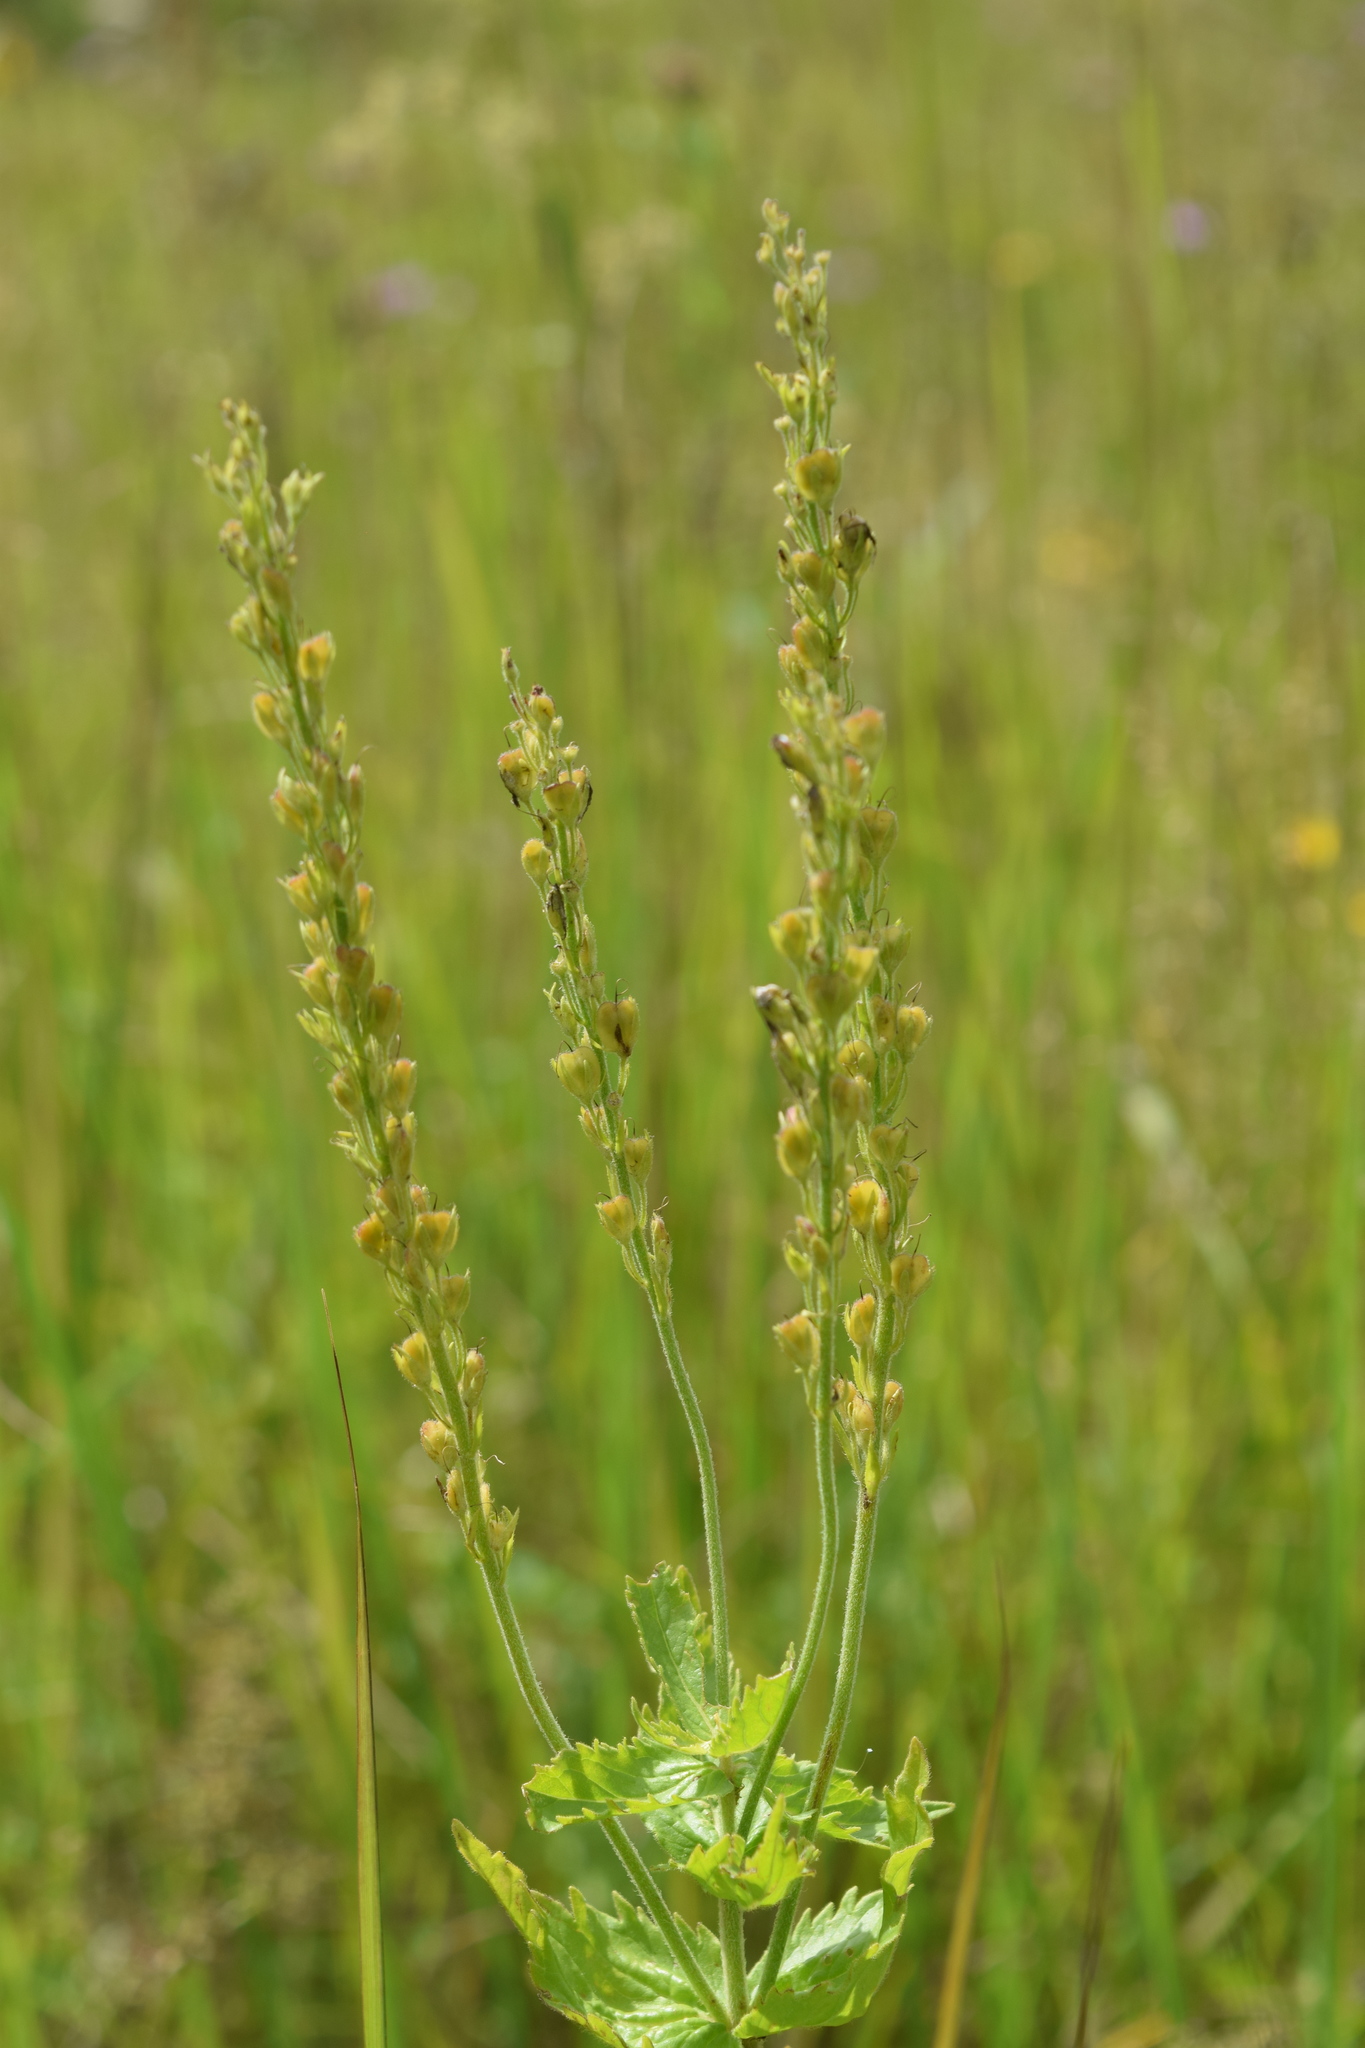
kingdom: Plantae
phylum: Tracheophyta
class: Magnoliopsida
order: Lamiales
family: Plantaginaceae
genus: Veronica
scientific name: Veronica teucrium
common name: Large speedwell
